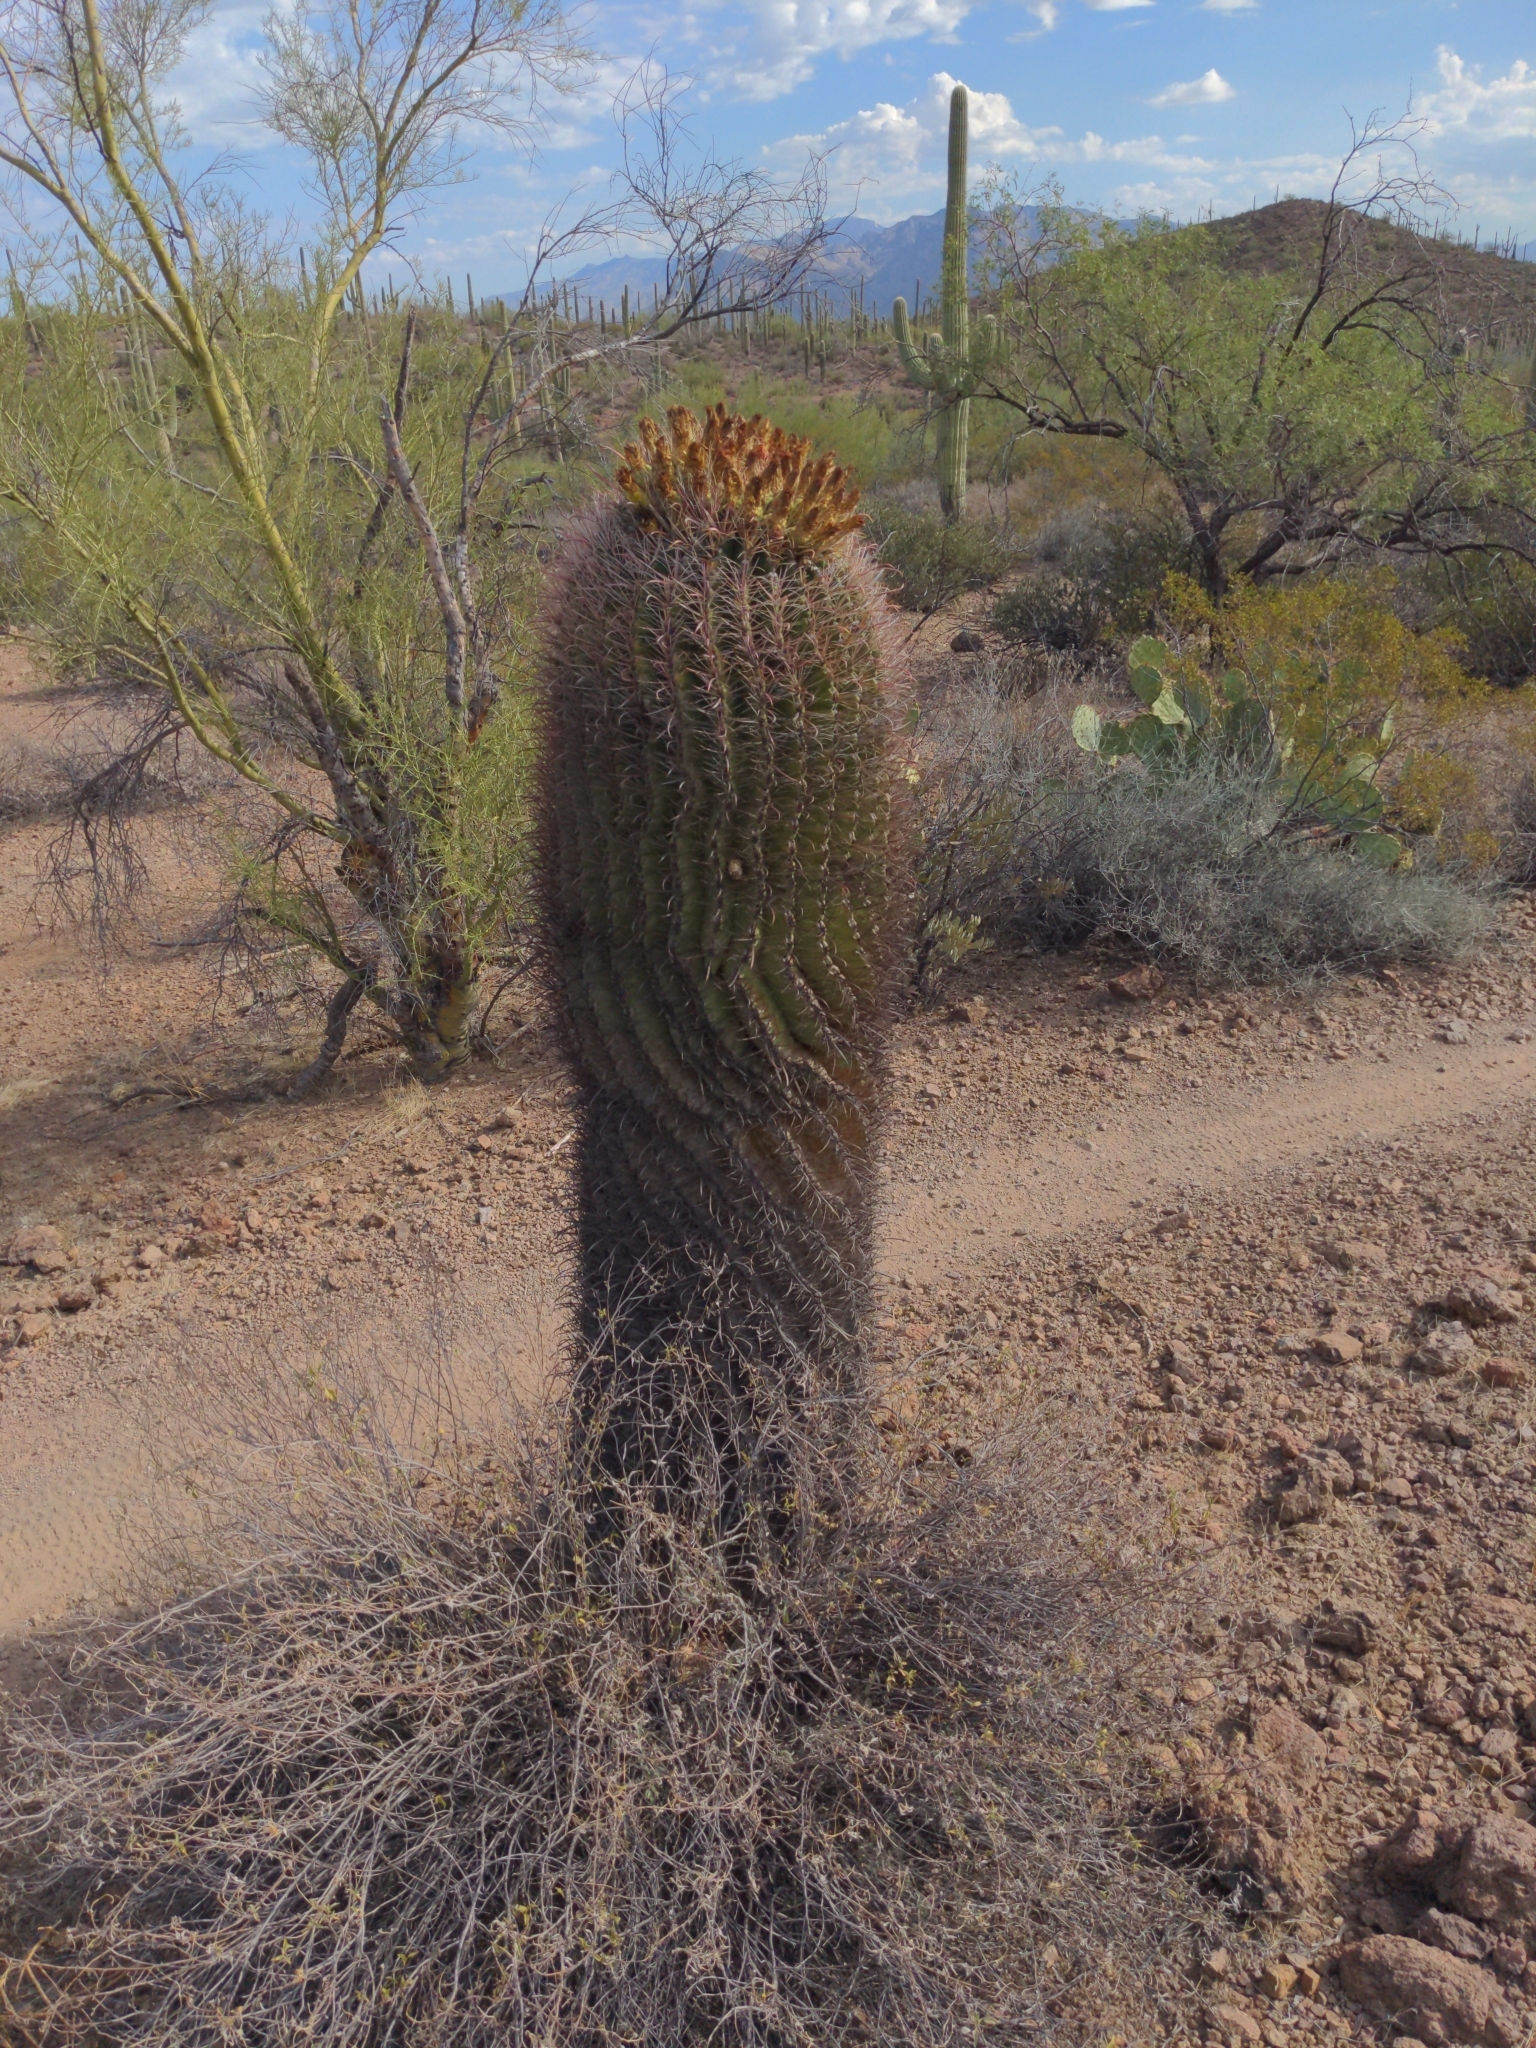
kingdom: Plantae
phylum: Tracheophyta
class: Magnoliopsida
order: Caryophyllales
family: Cactaceae
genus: Ferocactus
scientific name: Ferocactus wislizeni
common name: Candy barrel cactus
